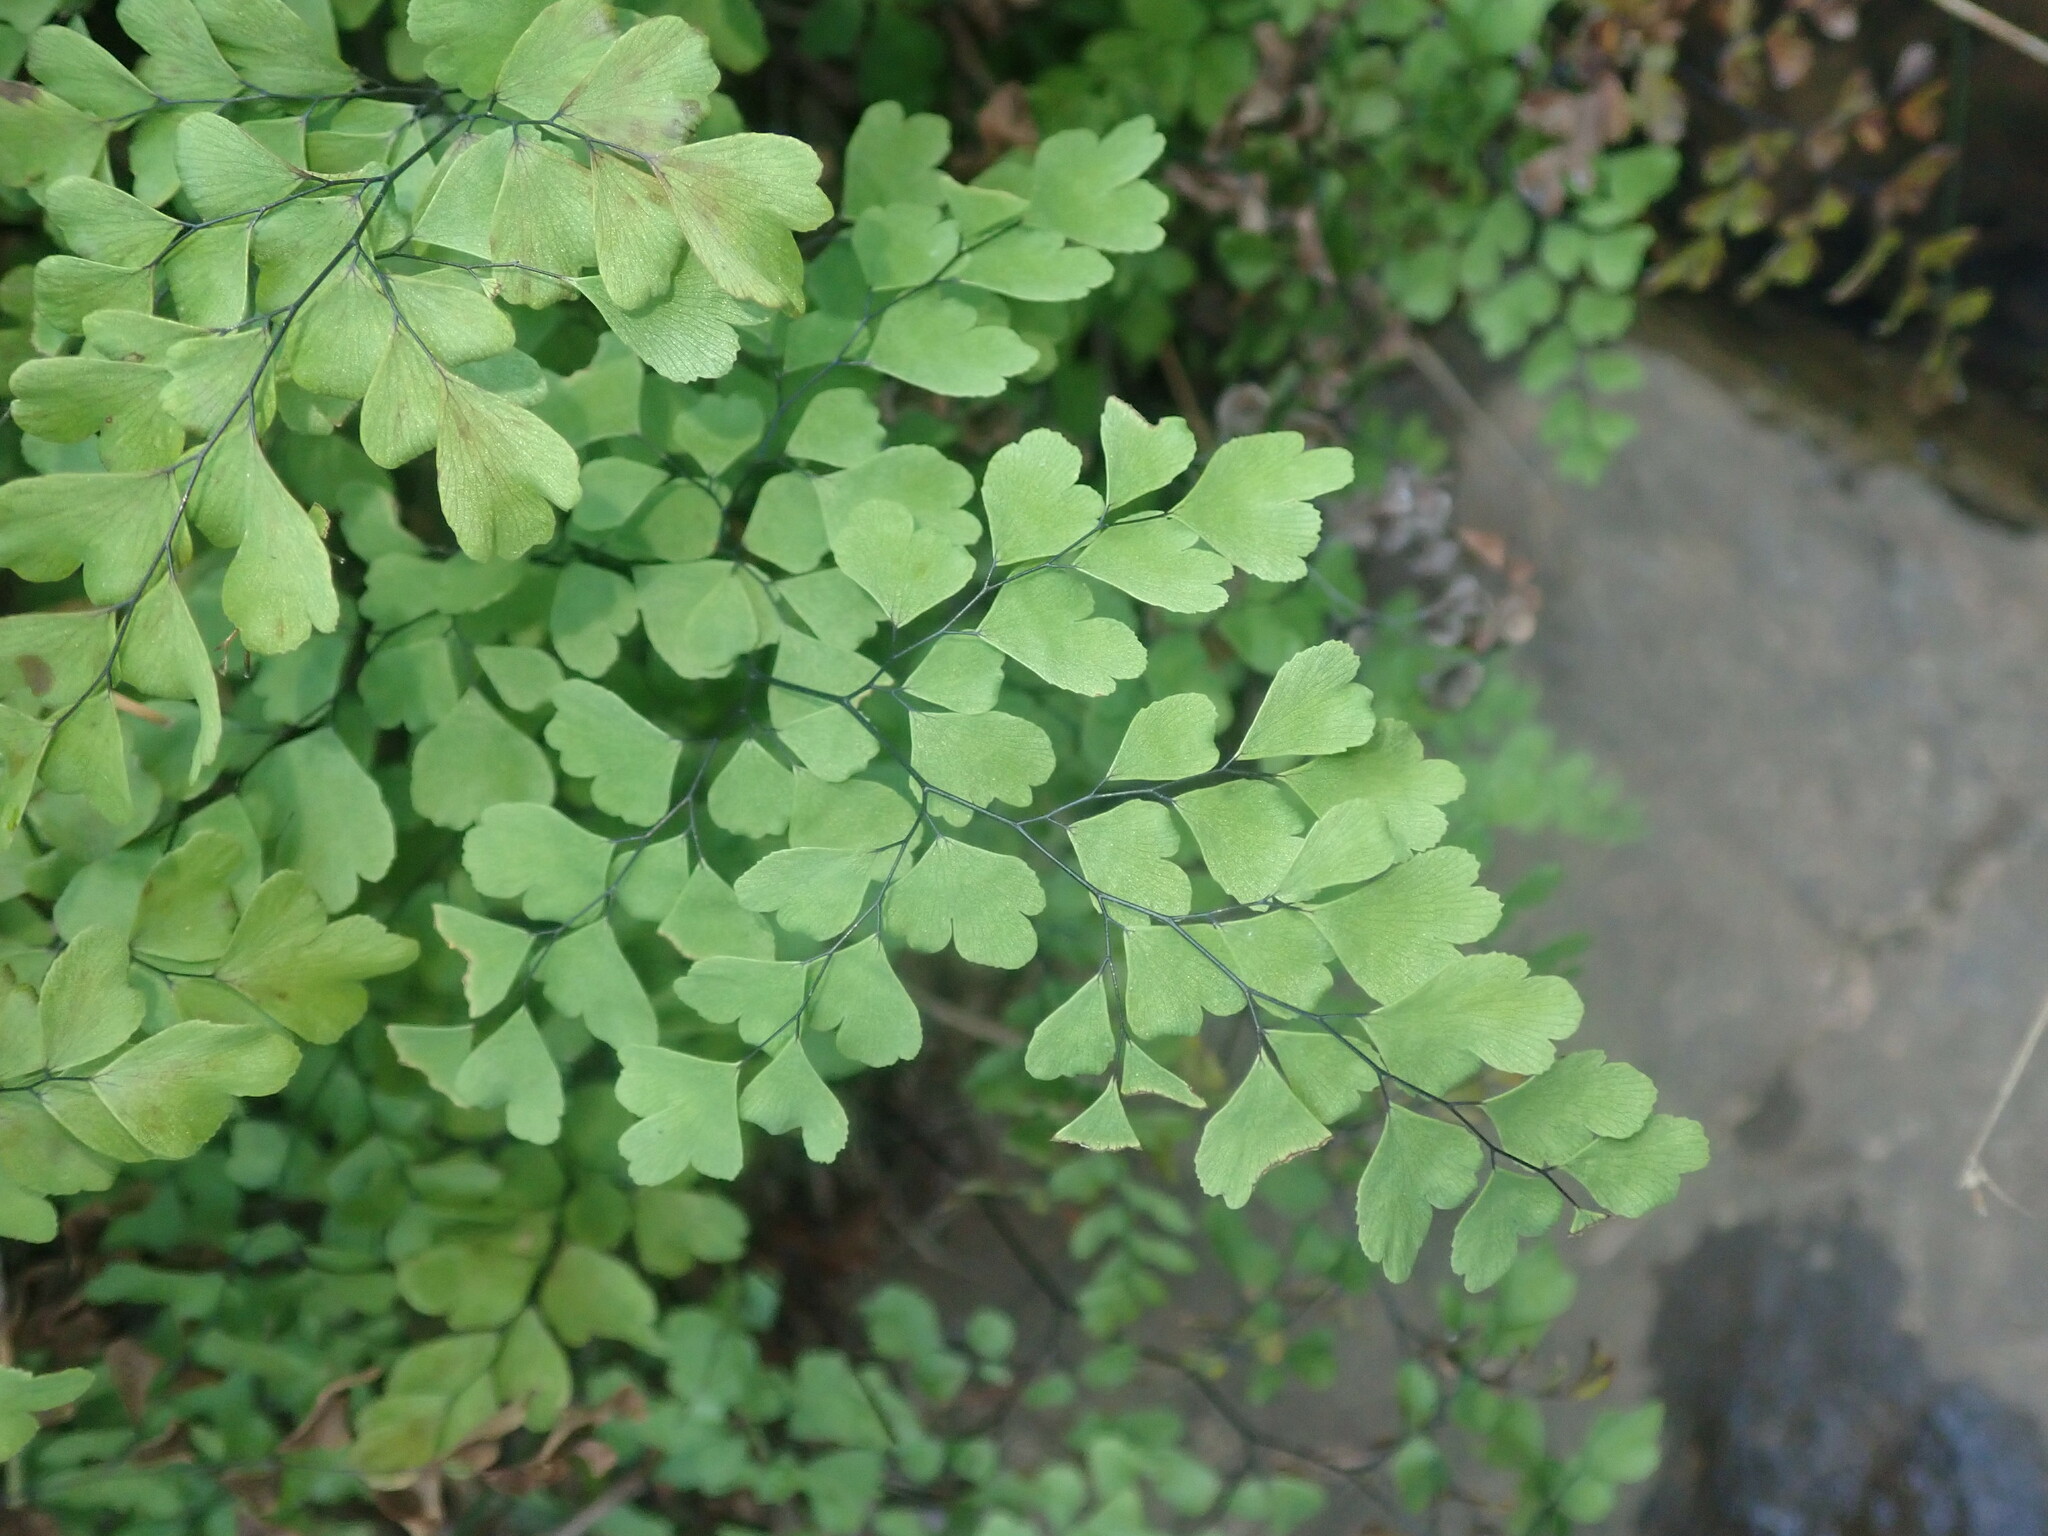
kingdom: Plantae
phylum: Tracheophyta
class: Polypodiopsida
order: Polypodiales
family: Pteridaceae
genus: Adiantum
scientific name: Adiantum capillus-veneris
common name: Maidenhair fern
